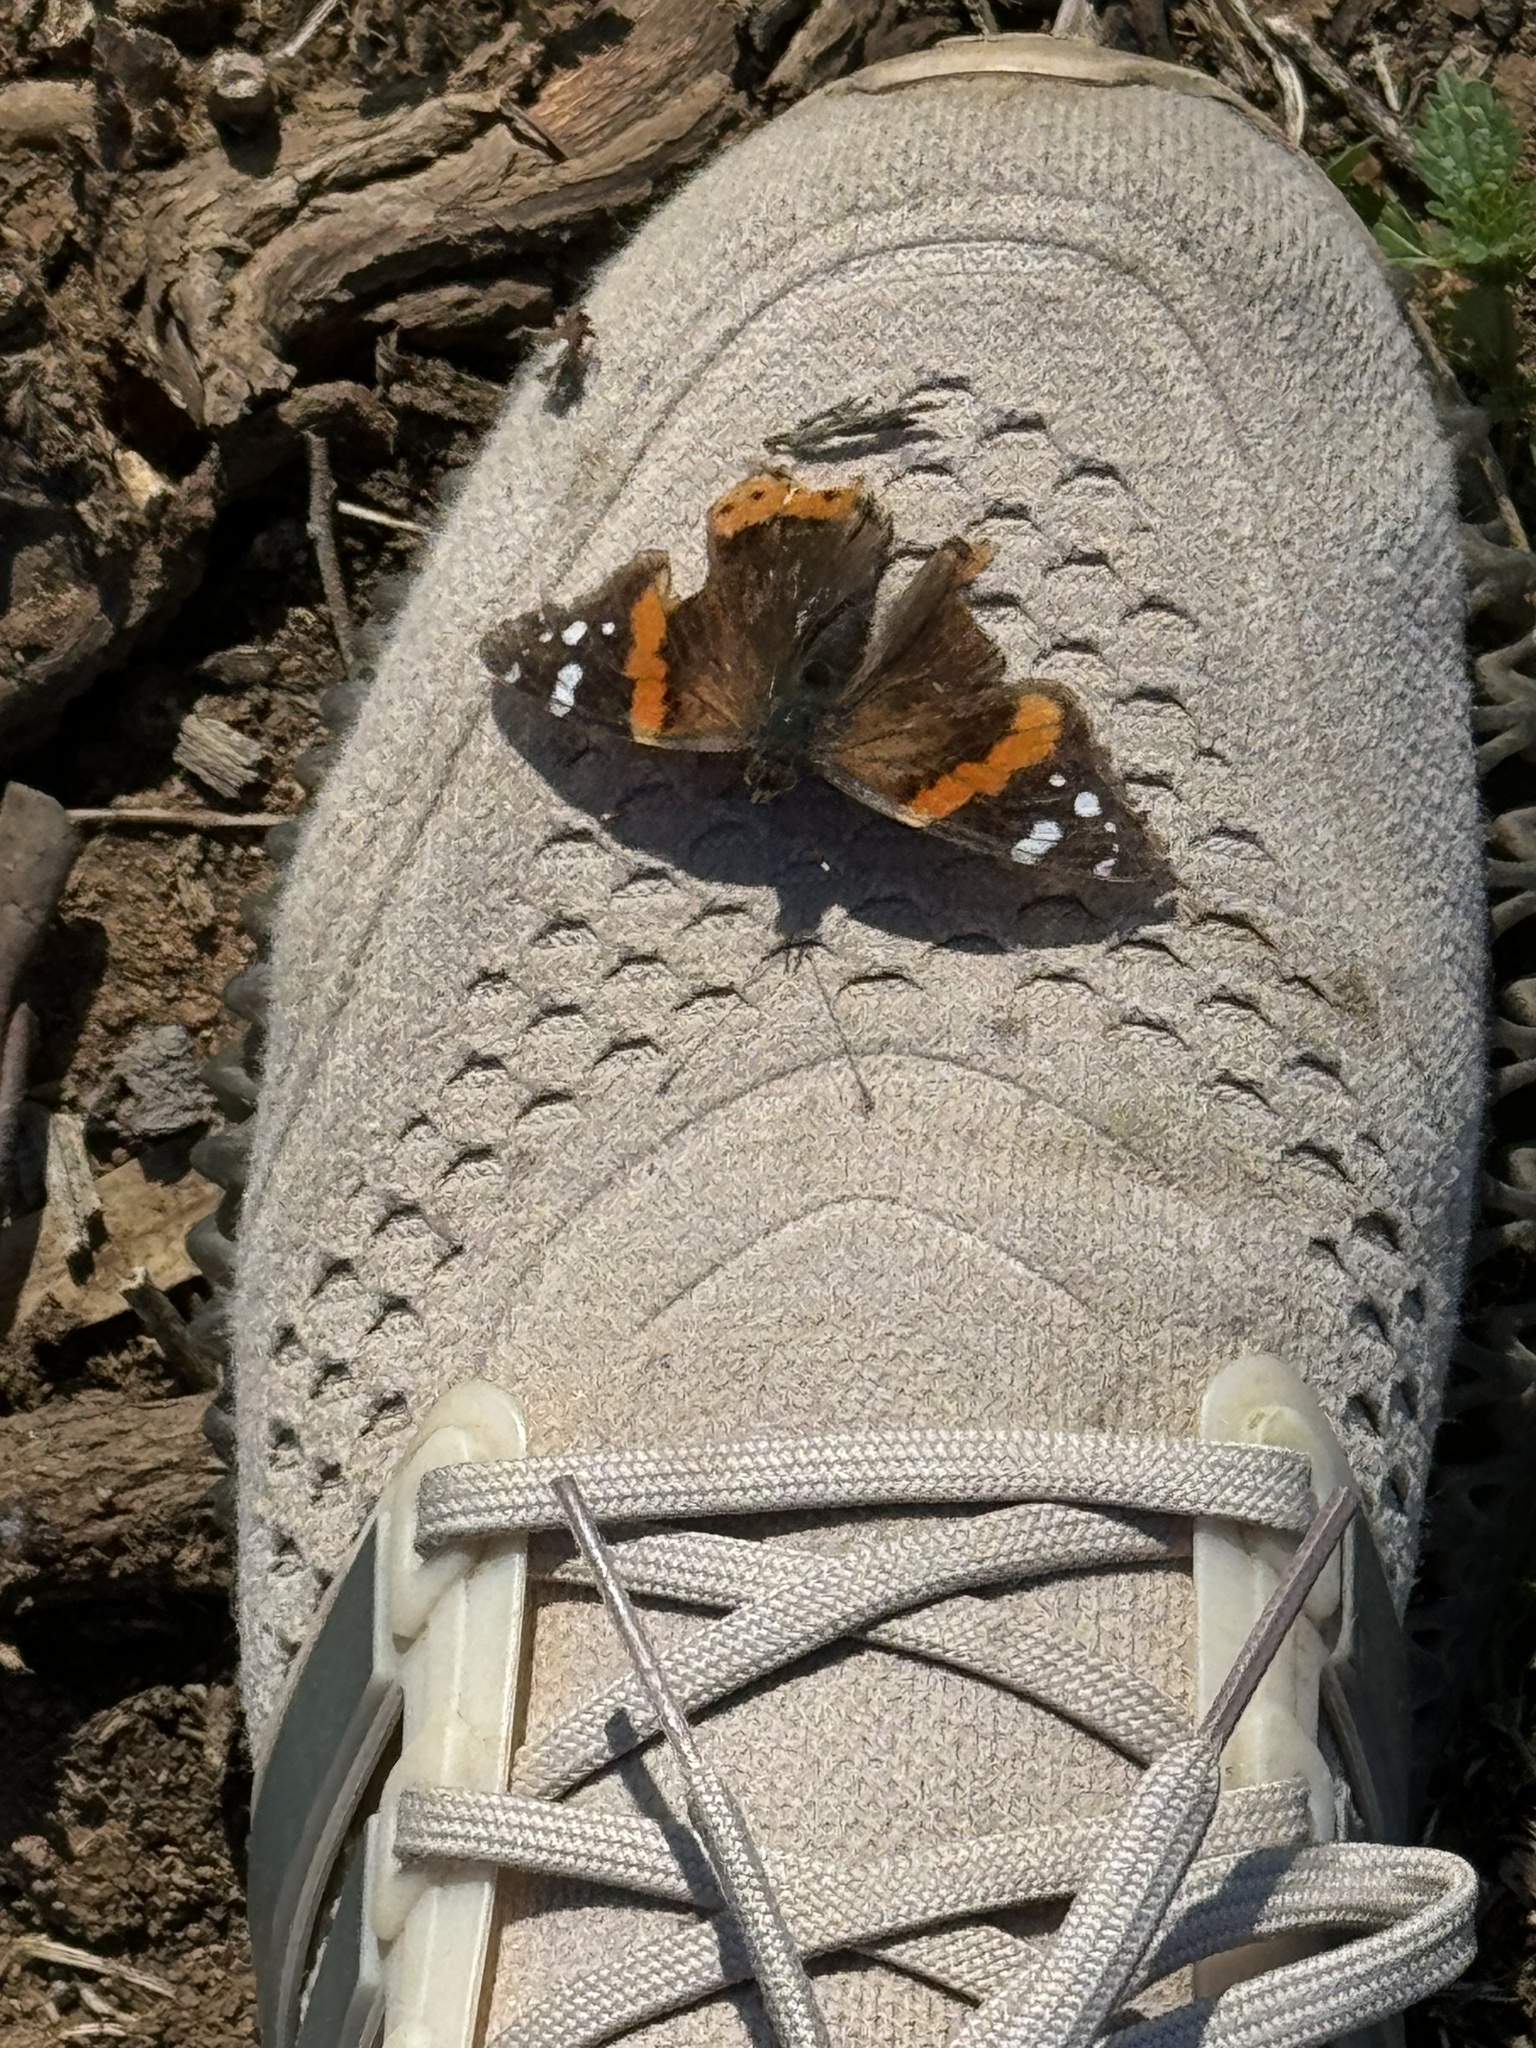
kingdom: Animalia
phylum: Arthropoda
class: Insecta
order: Lepidoptera
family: Nymphalidae
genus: Vanessa
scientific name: Vanessa atalanta
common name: Red admiral
